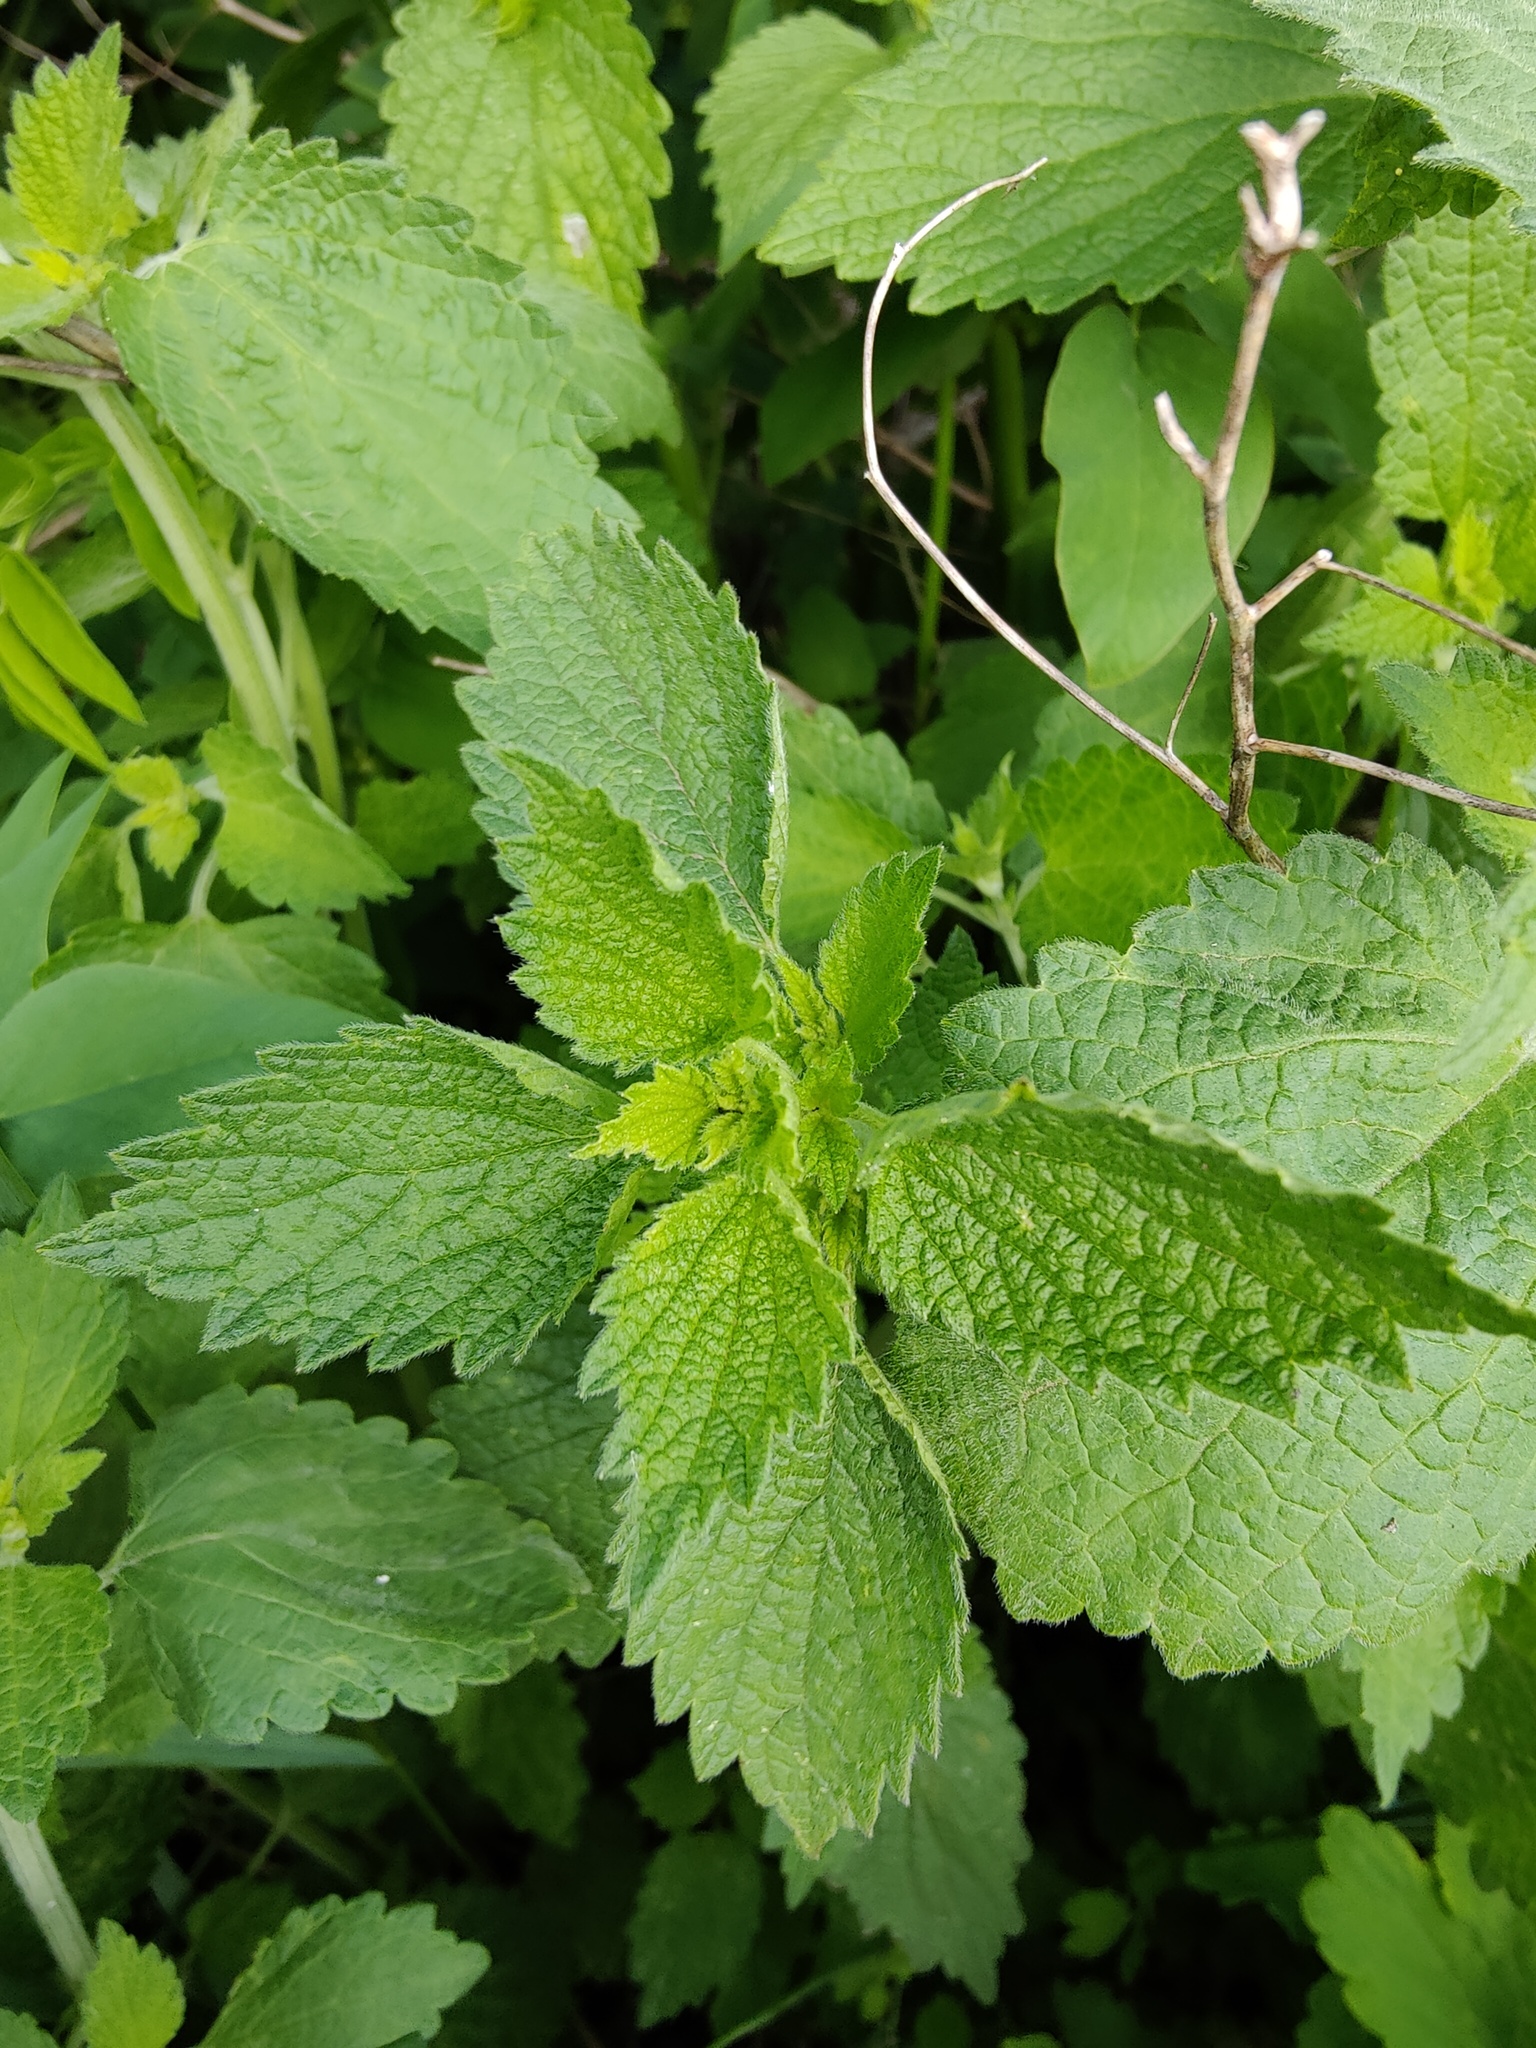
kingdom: Plantae
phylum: Tracheophyta
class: Magnoliopsida
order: Lamiales
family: Lamiaceae
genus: Ballota
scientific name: Ballota nigra
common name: Black horehound
